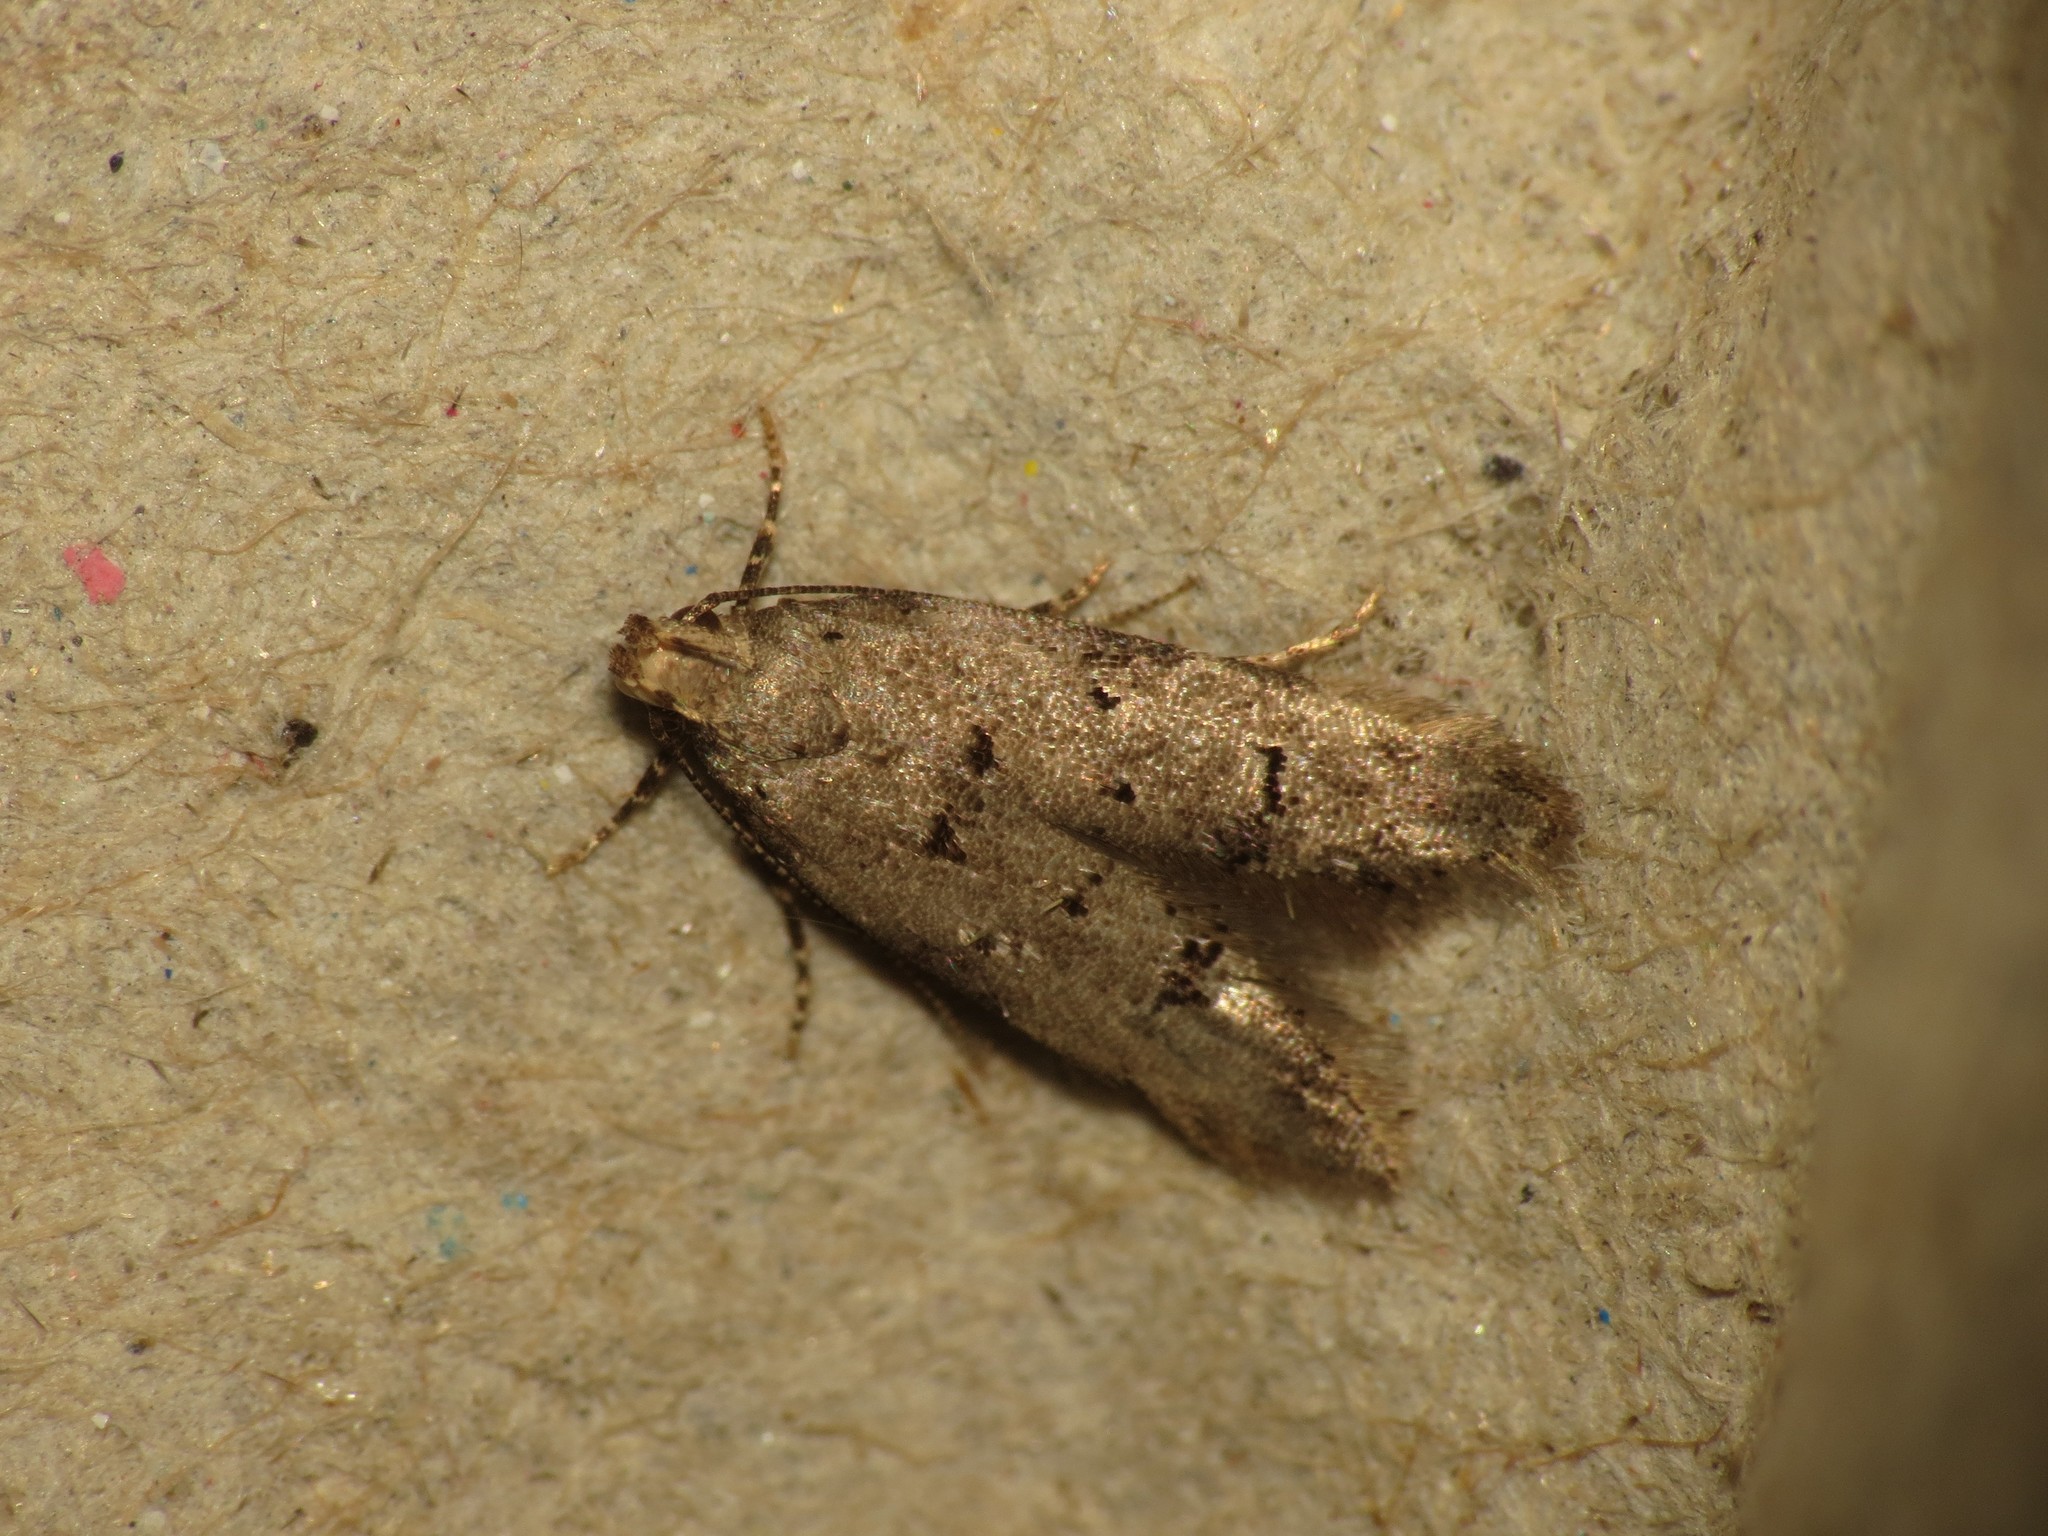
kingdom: Animalia
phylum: Arthropoda
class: Insecta
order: Lepidoptera
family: Gelechiidae
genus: Teleiodes
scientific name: Teleiodes vulgella
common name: Common groundling
